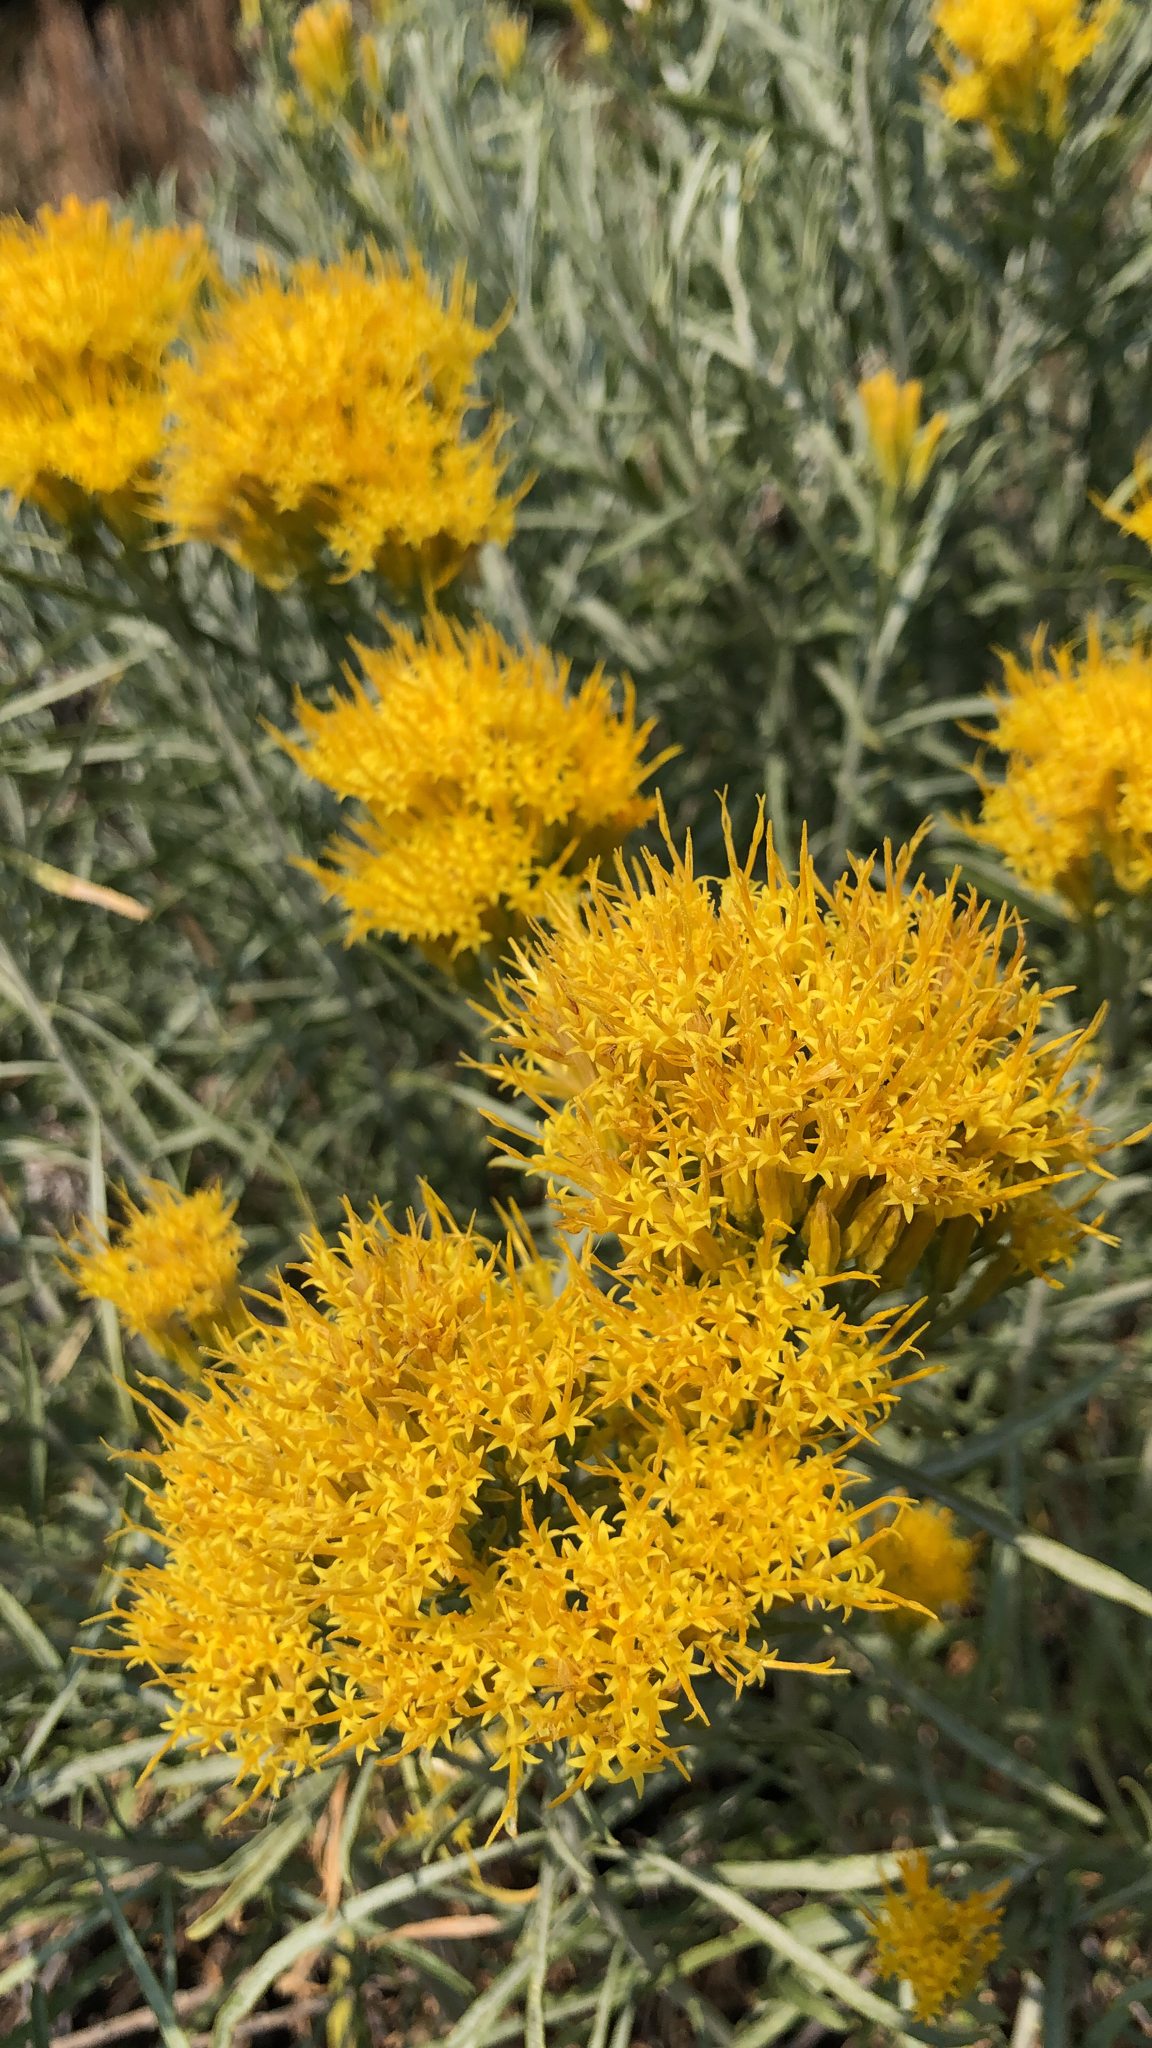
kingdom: Plantae
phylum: Tracheophyta
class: Magnoliopsida
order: Asterales
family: Asteraceae
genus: Ericameria
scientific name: Ericameria nauseosa
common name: Rubber rabbitbrush
